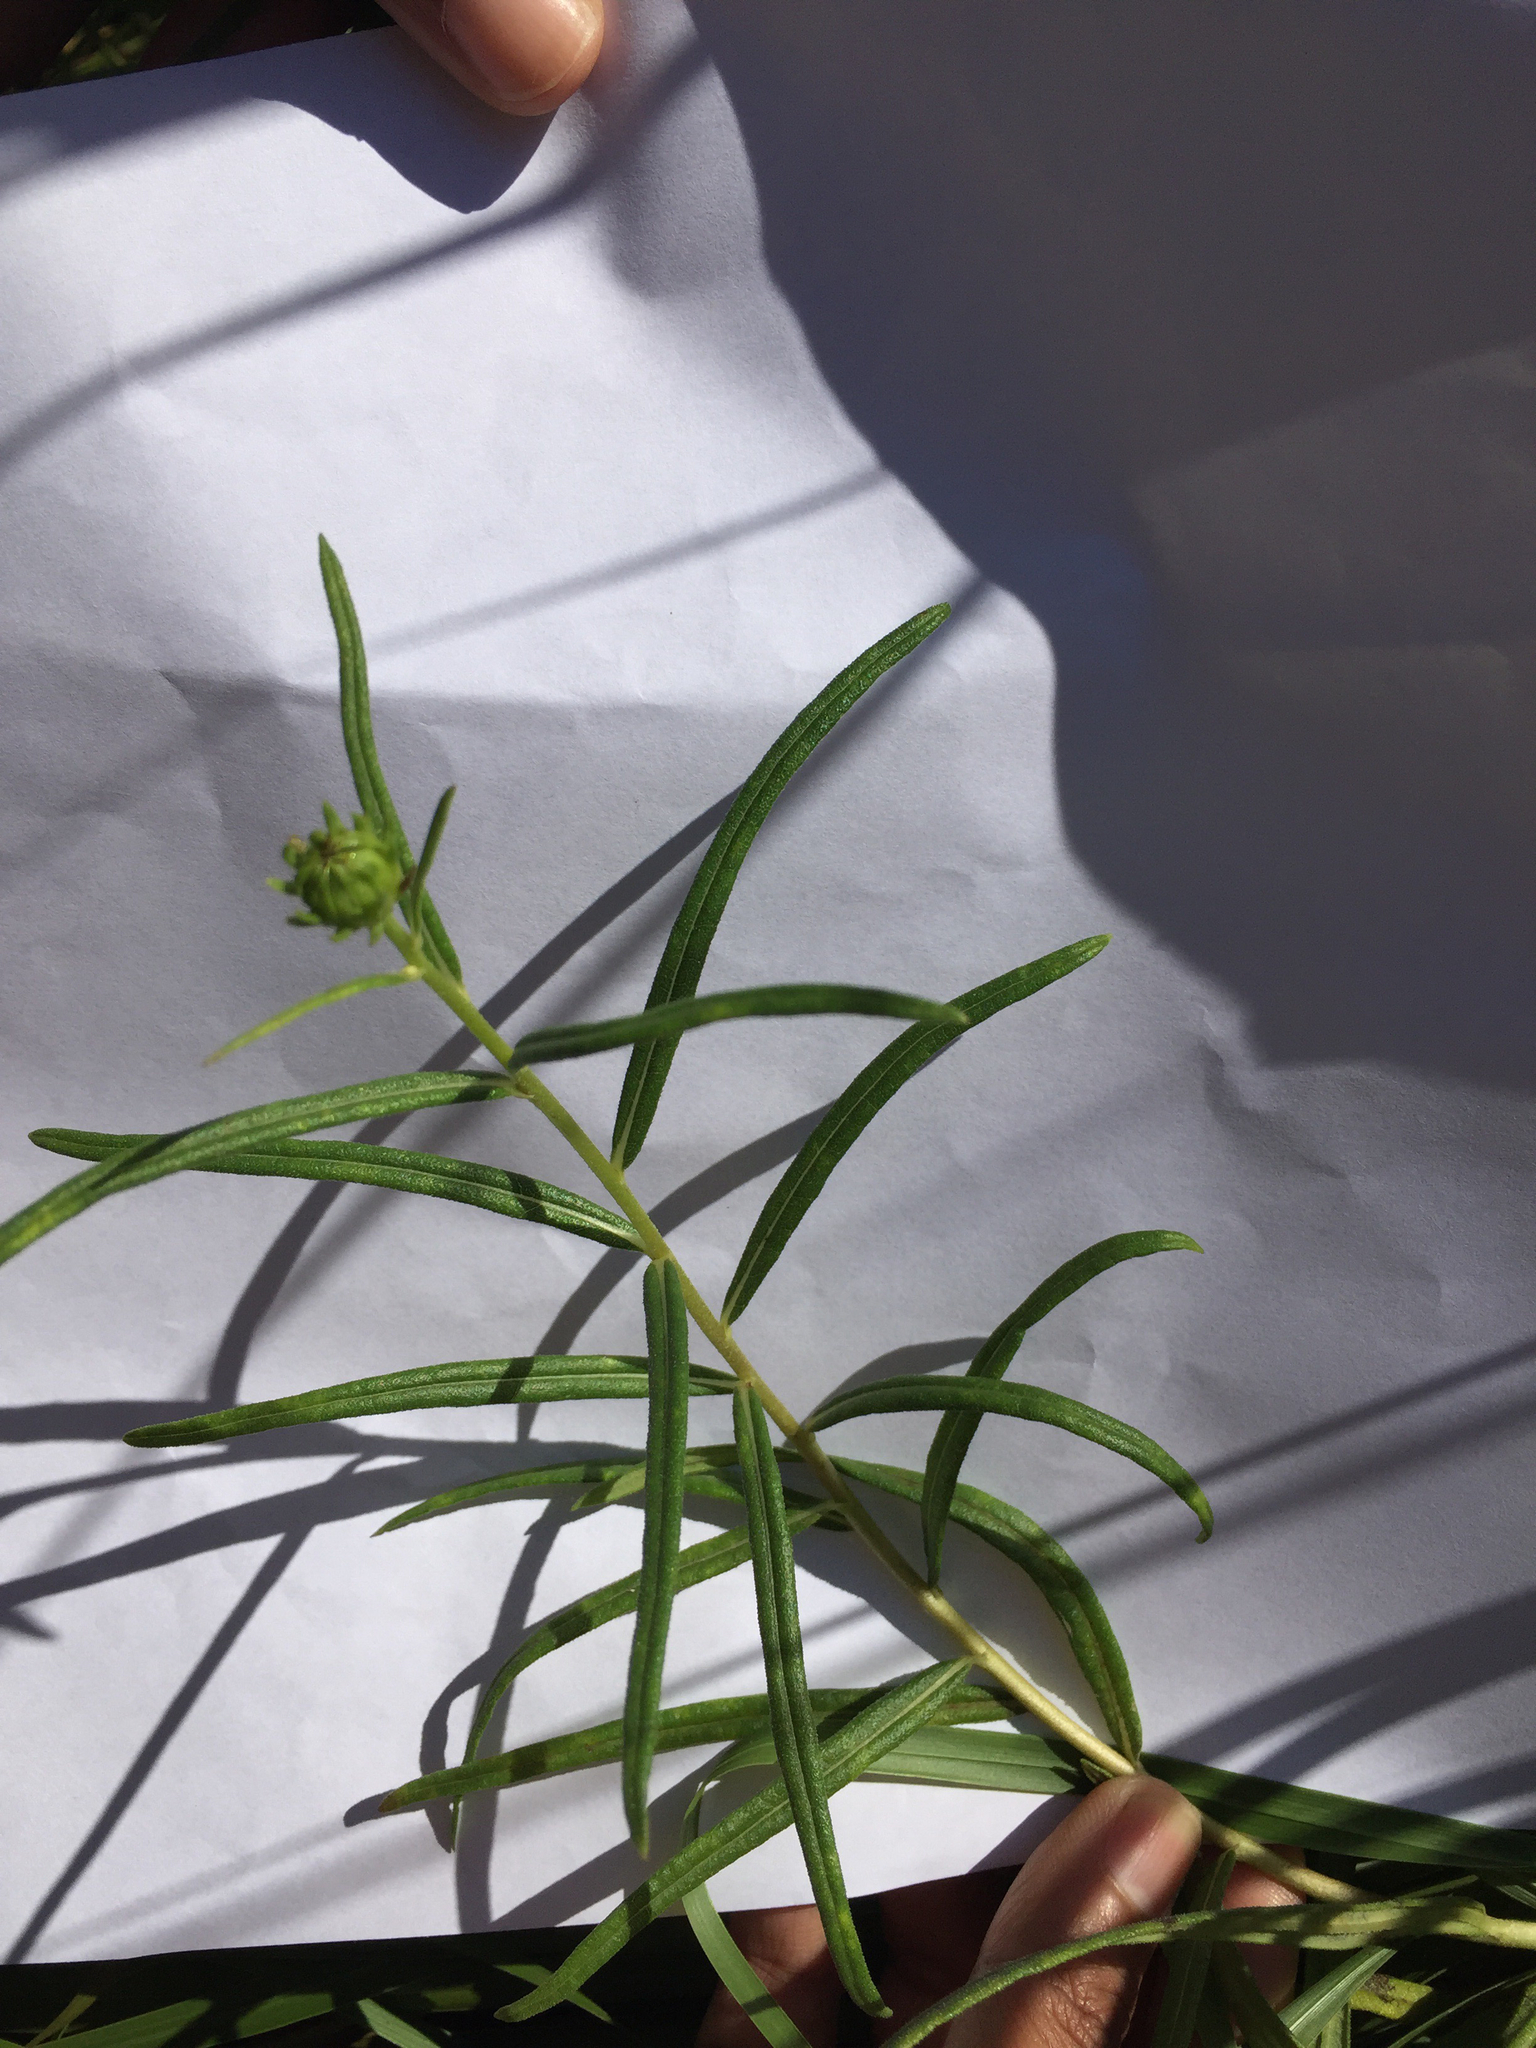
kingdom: Plantae
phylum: Tracheophyta
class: Magnoliopsida
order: Asterales
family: Asteraceae
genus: Helianthus
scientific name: Helianthus angustifolius
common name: Swamp sunflower
